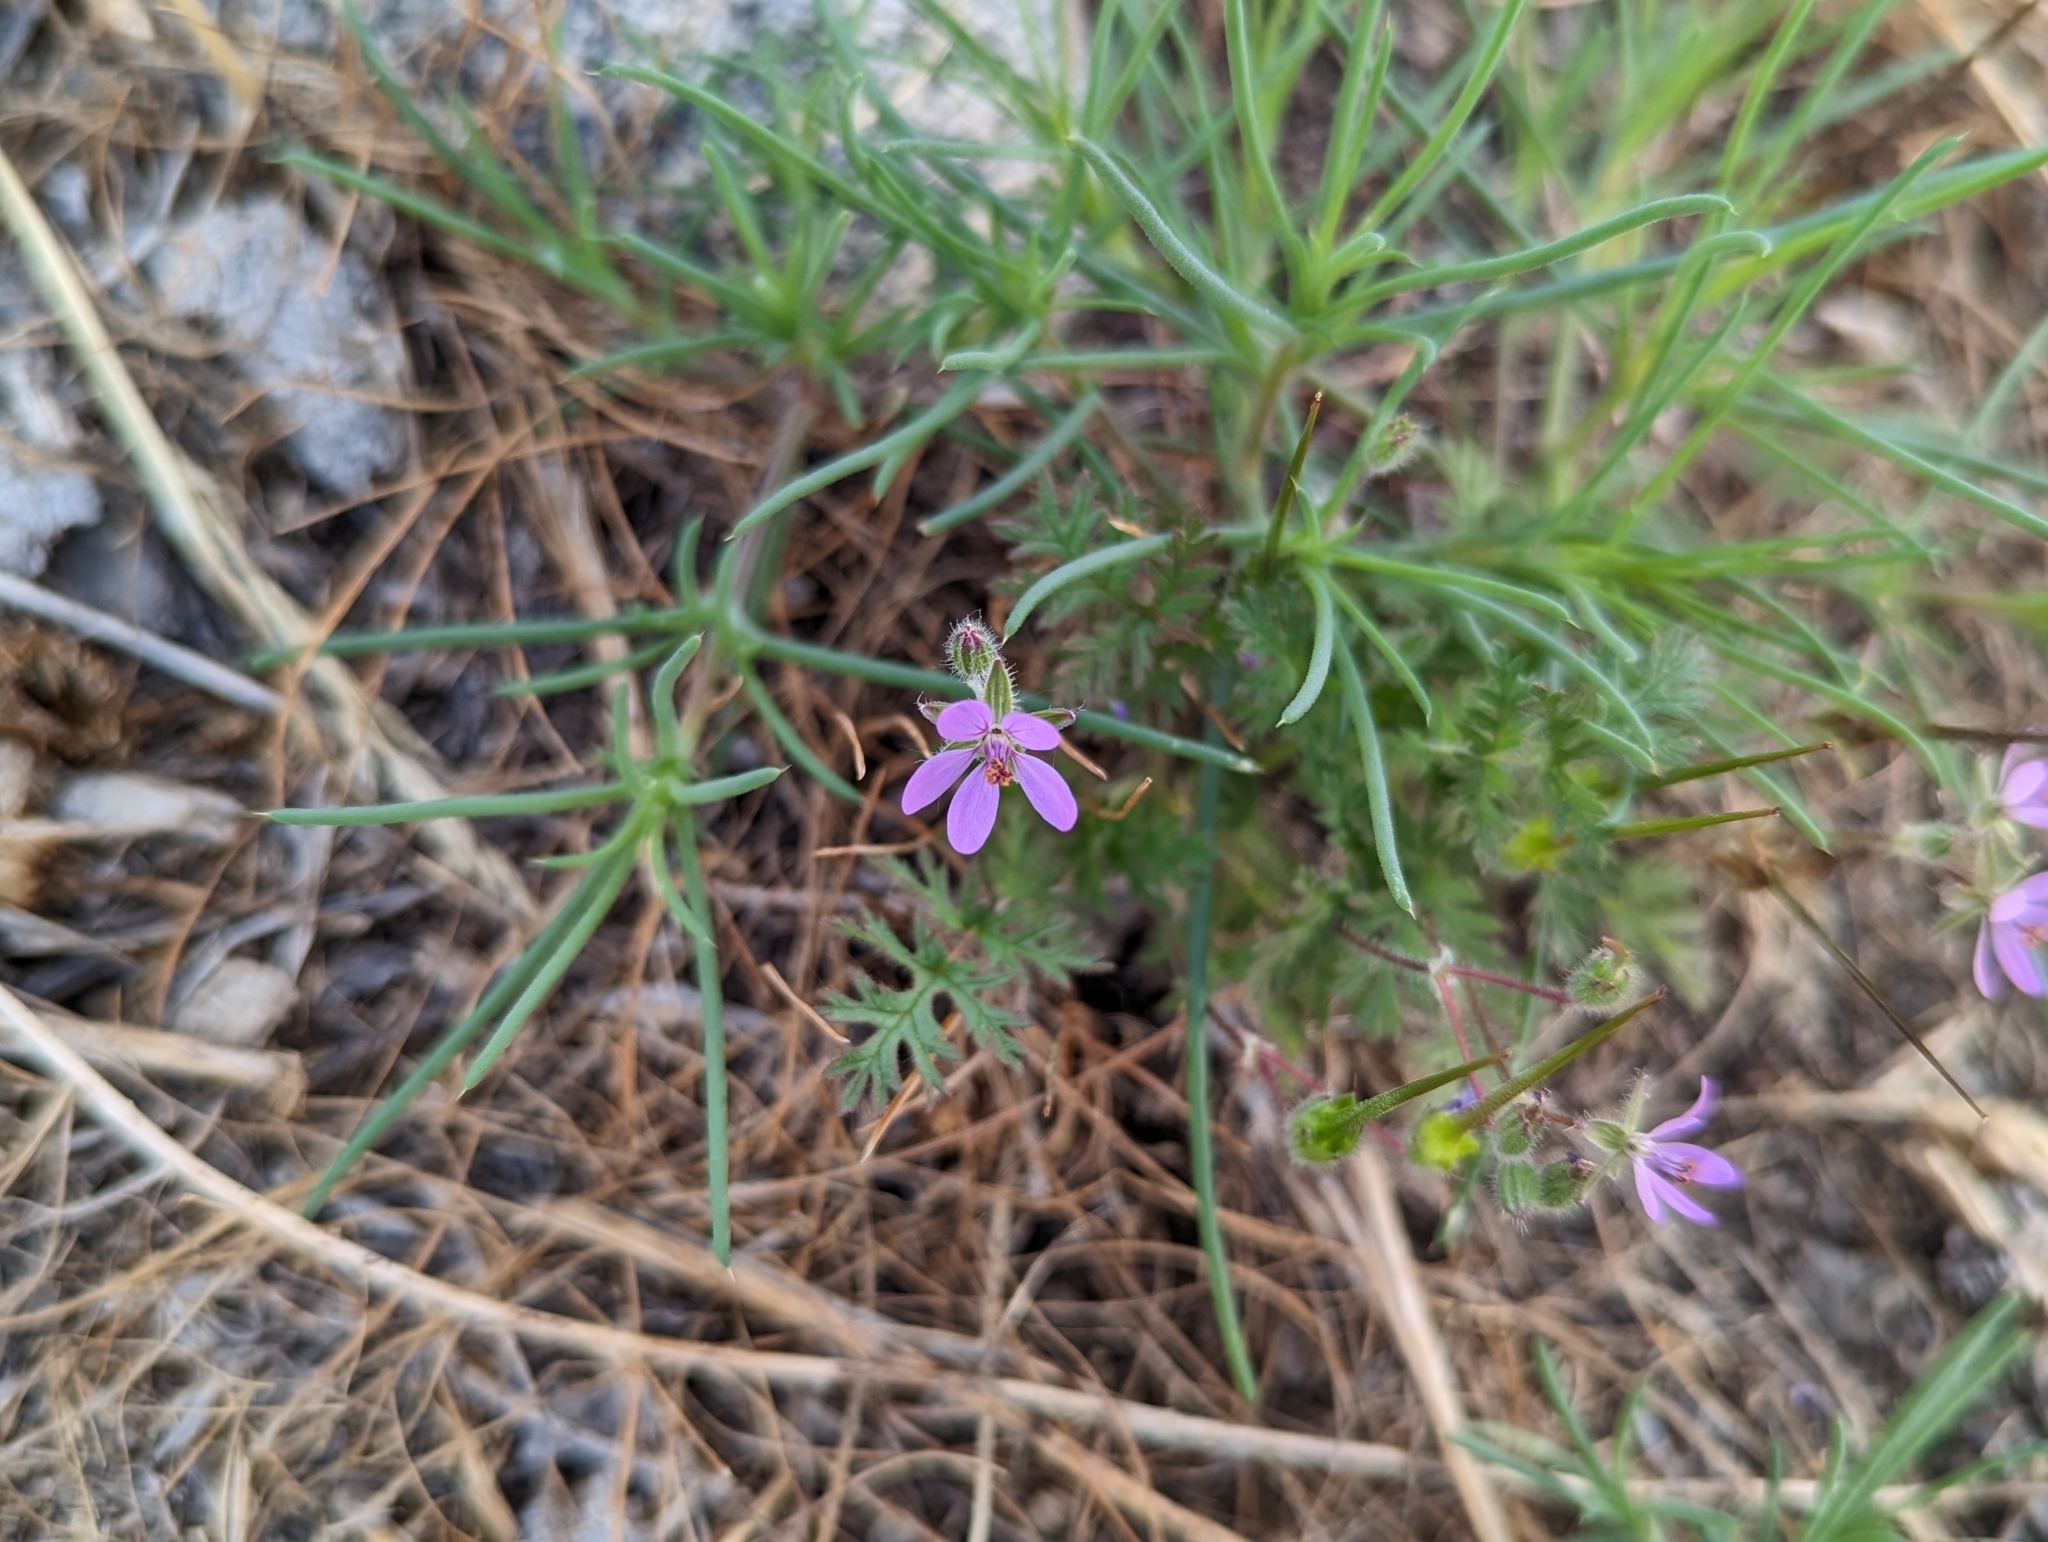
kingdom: Plantae
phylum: Tracheophyta
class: Magnoliopsida
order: Geraniales
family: Geraniaceae
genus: Erodium
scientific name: Erodium cicutarium
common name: Common stork's-bill
